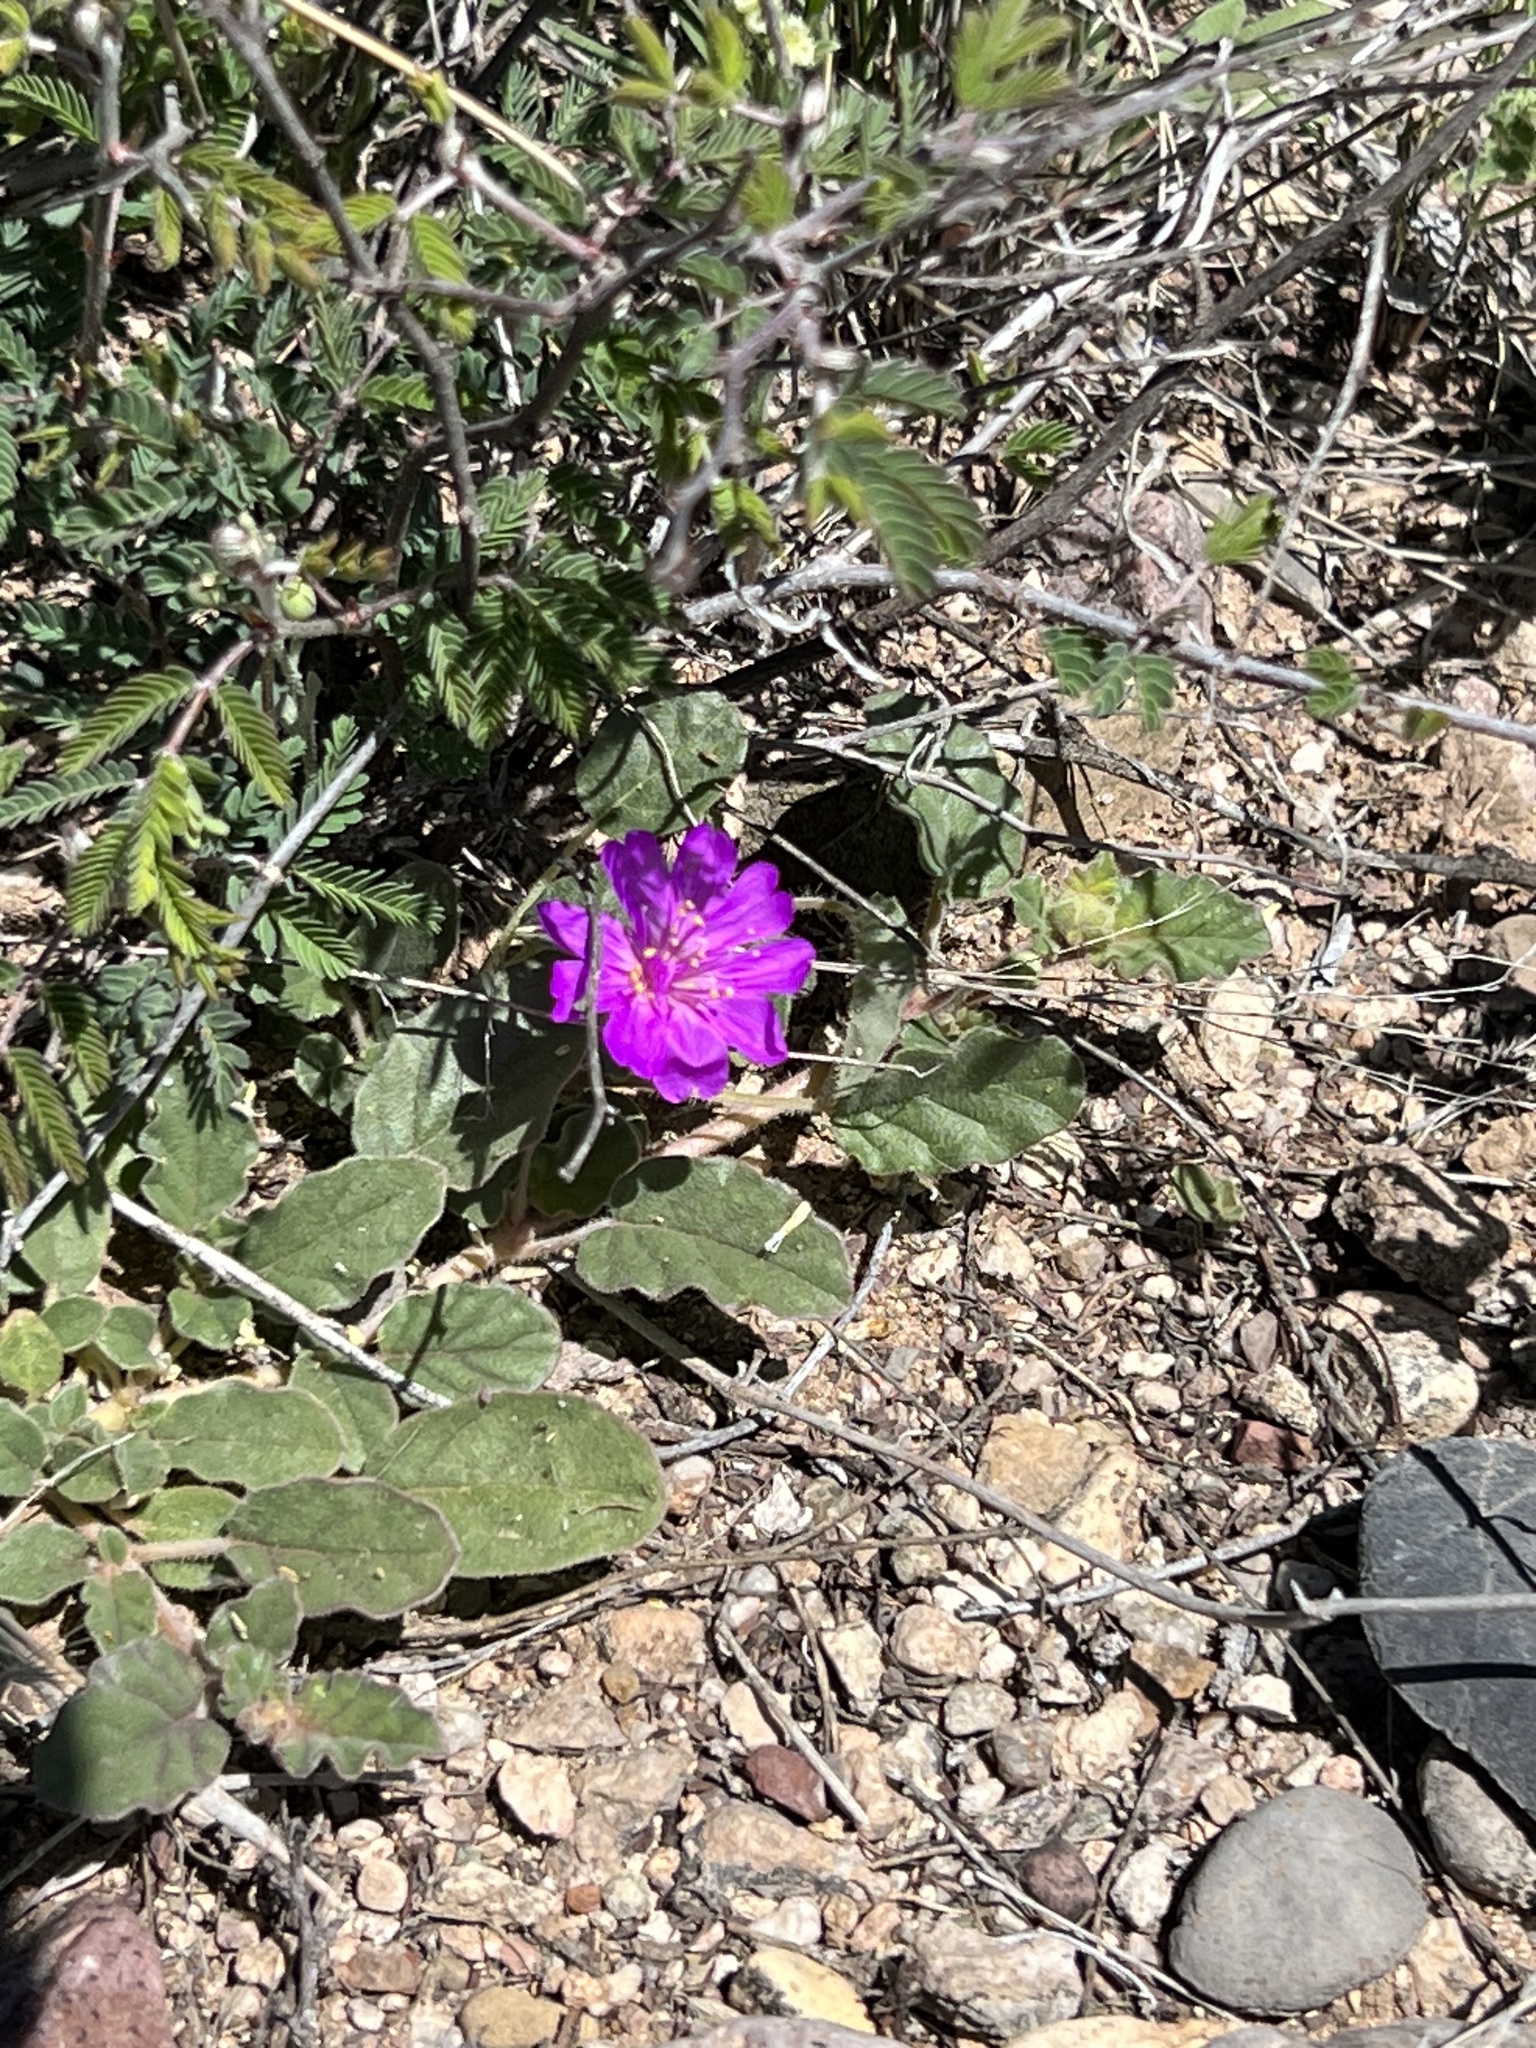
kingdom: Plantae
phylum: Tracheophyta
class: Magnoliopsida
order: Caryophyllales
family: Nyctaginaceae
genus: Allionia
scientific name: Allionia incarnata
